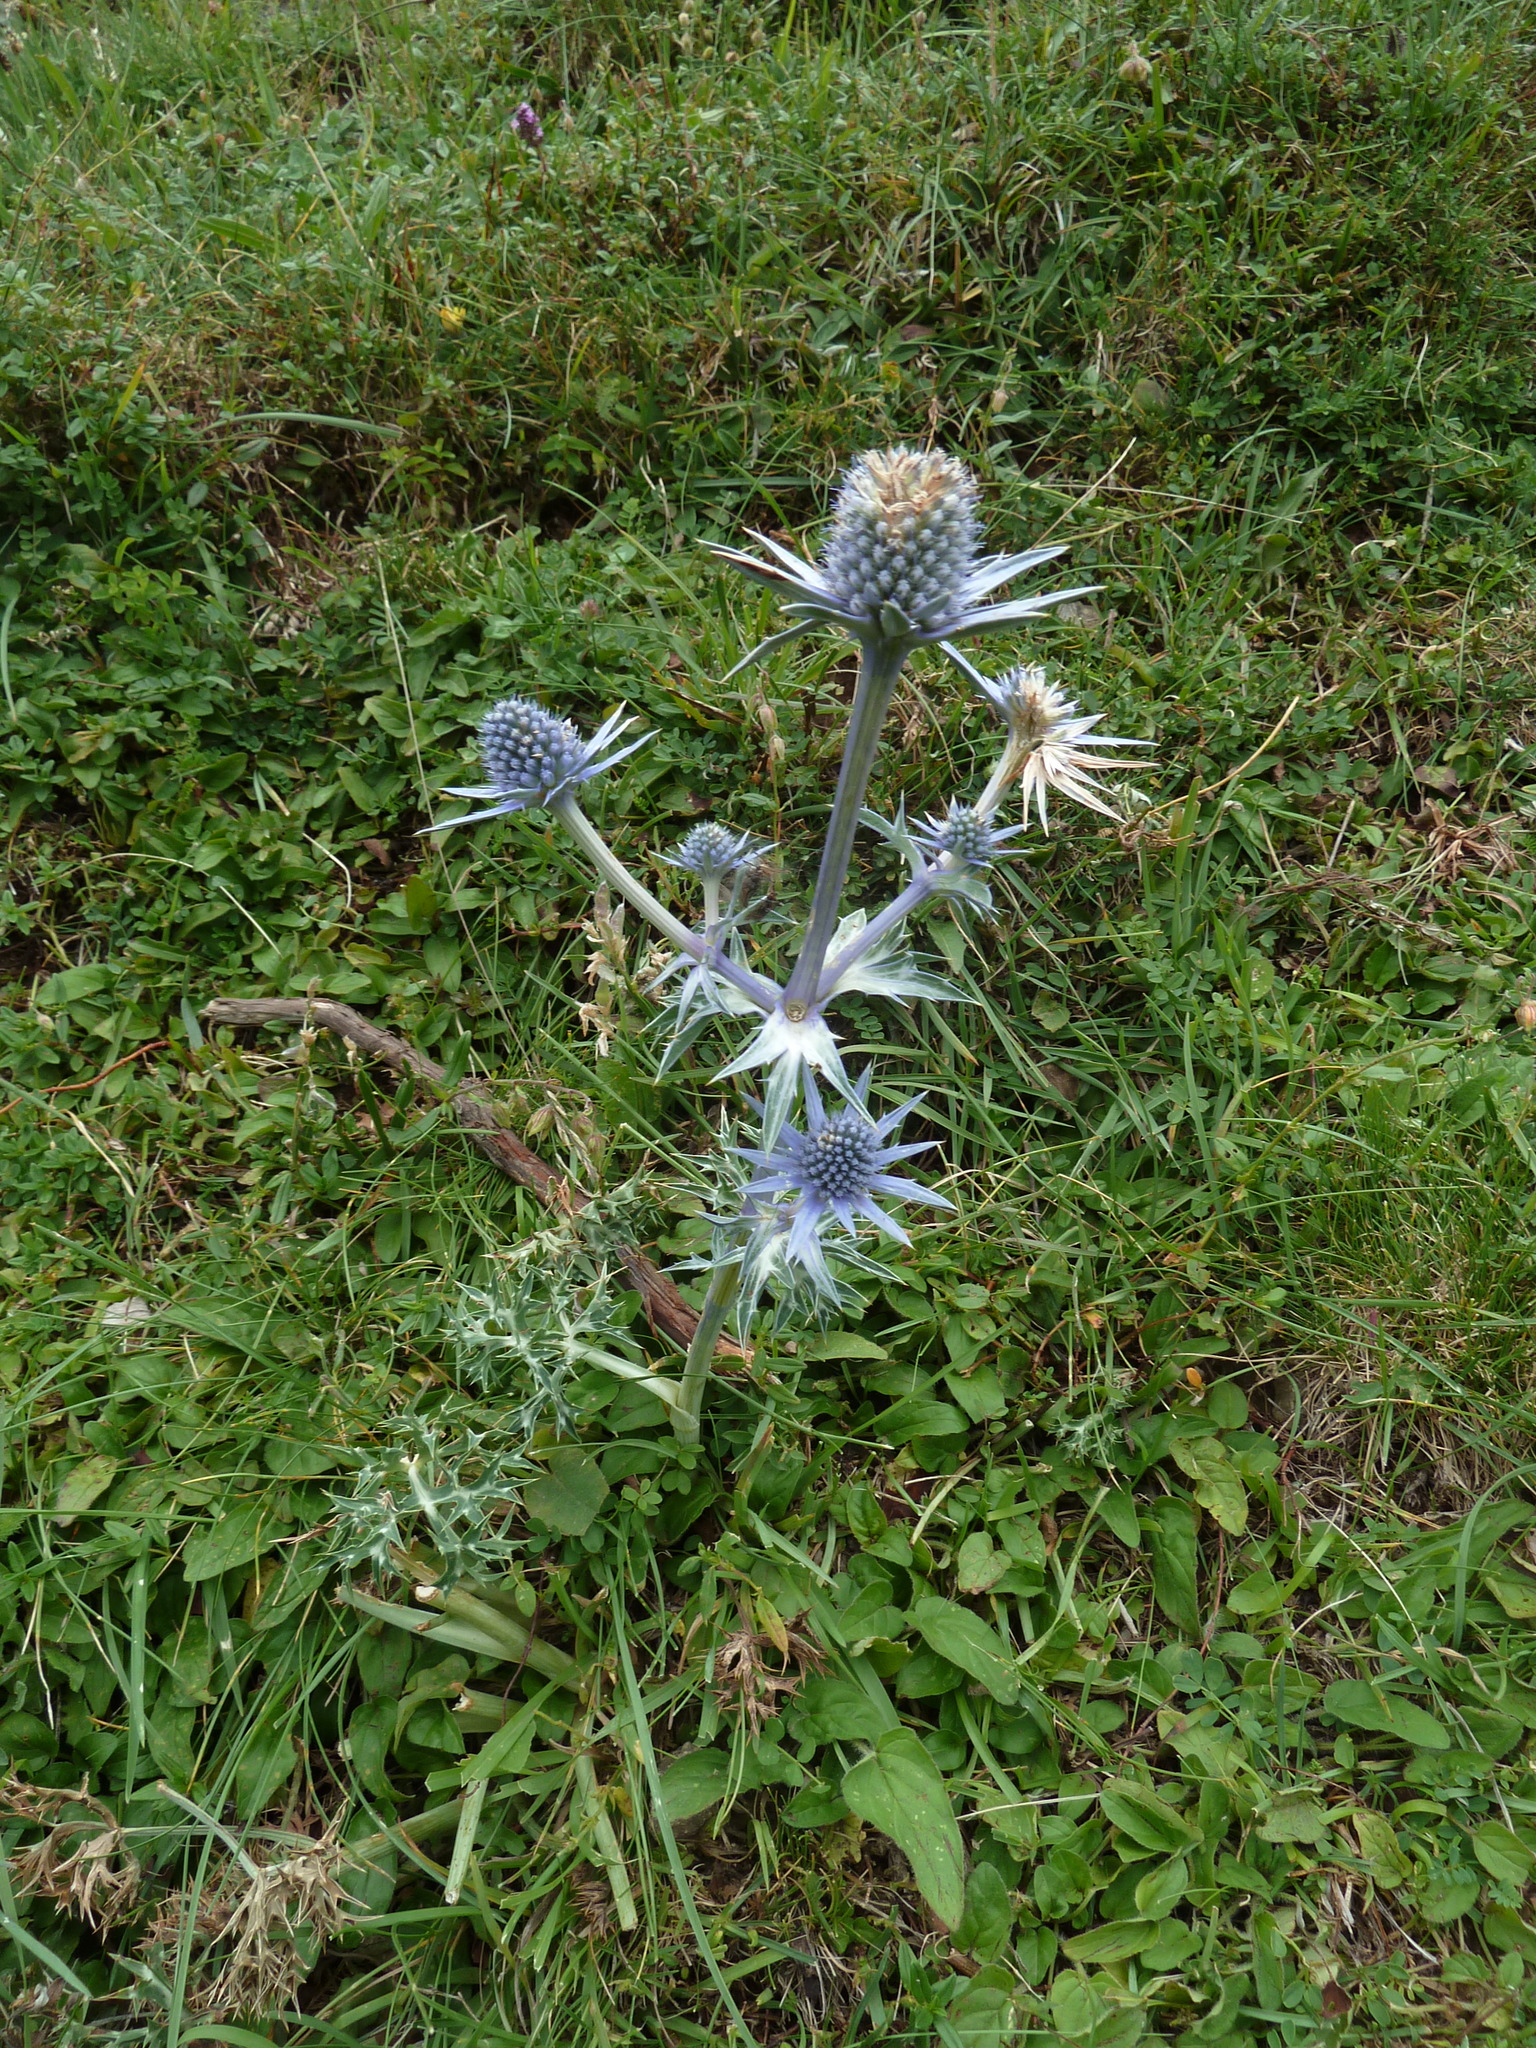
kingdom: Plantae
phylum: Tracheophyta
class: Magnoliopsida
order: Apiales
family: Apiaceae
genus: Eryngium
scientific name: Eryngium bourgatii
